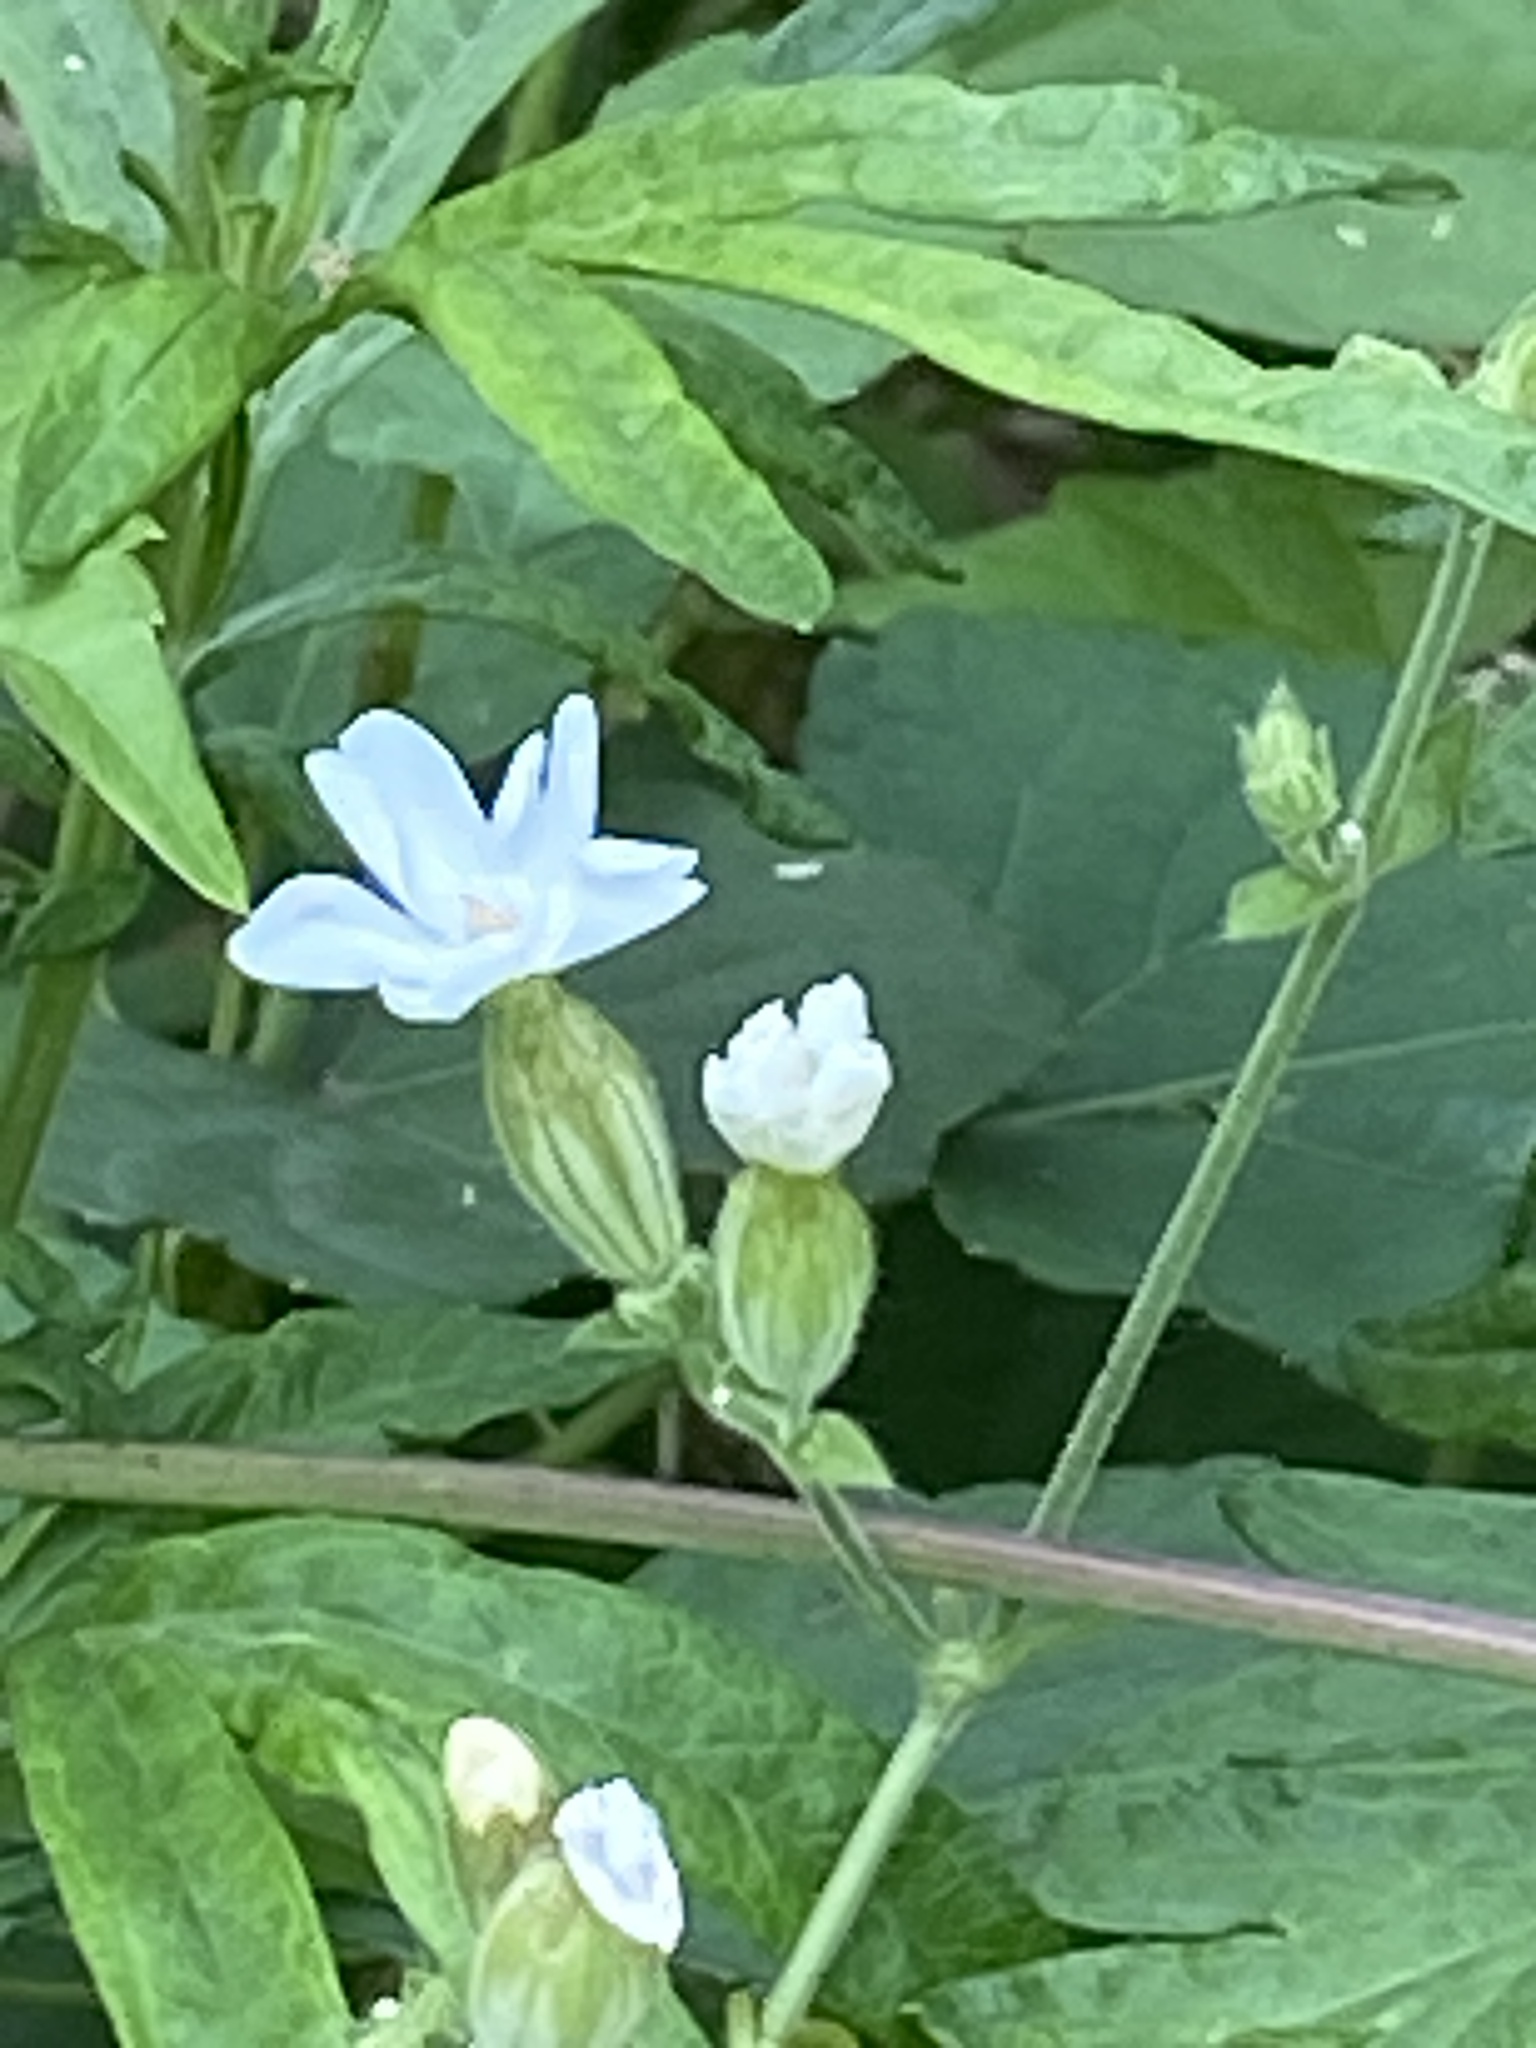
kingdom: Plantae
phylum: Tracheophyta
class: Magnoliopsida
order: Caryophyllales
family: Caryophyllaceae
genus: Silene
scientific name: Silene latifolia
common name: White campion
